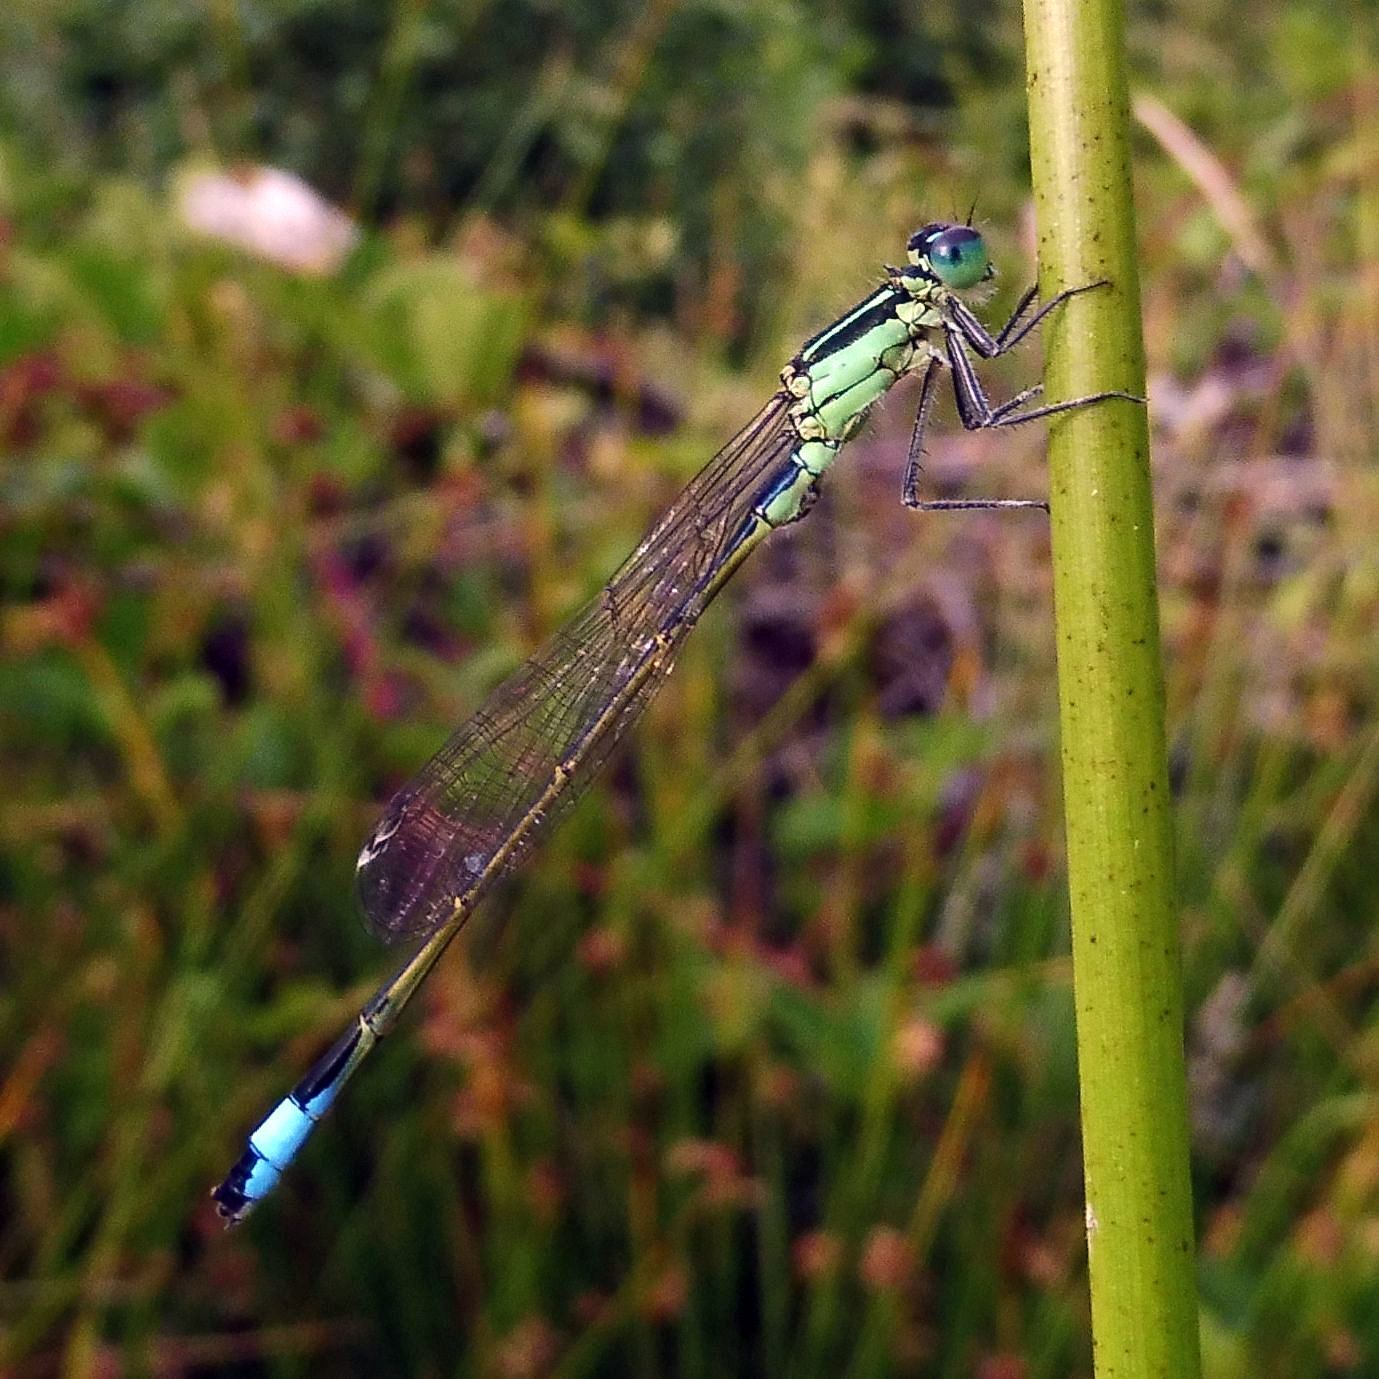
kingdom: Animalia
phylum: Arthropoda
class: Insecta
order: Odonata
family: Coenagrionidae
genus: Ischnura
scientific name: Ischnura elegans
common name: Blue-tailed damselfly
